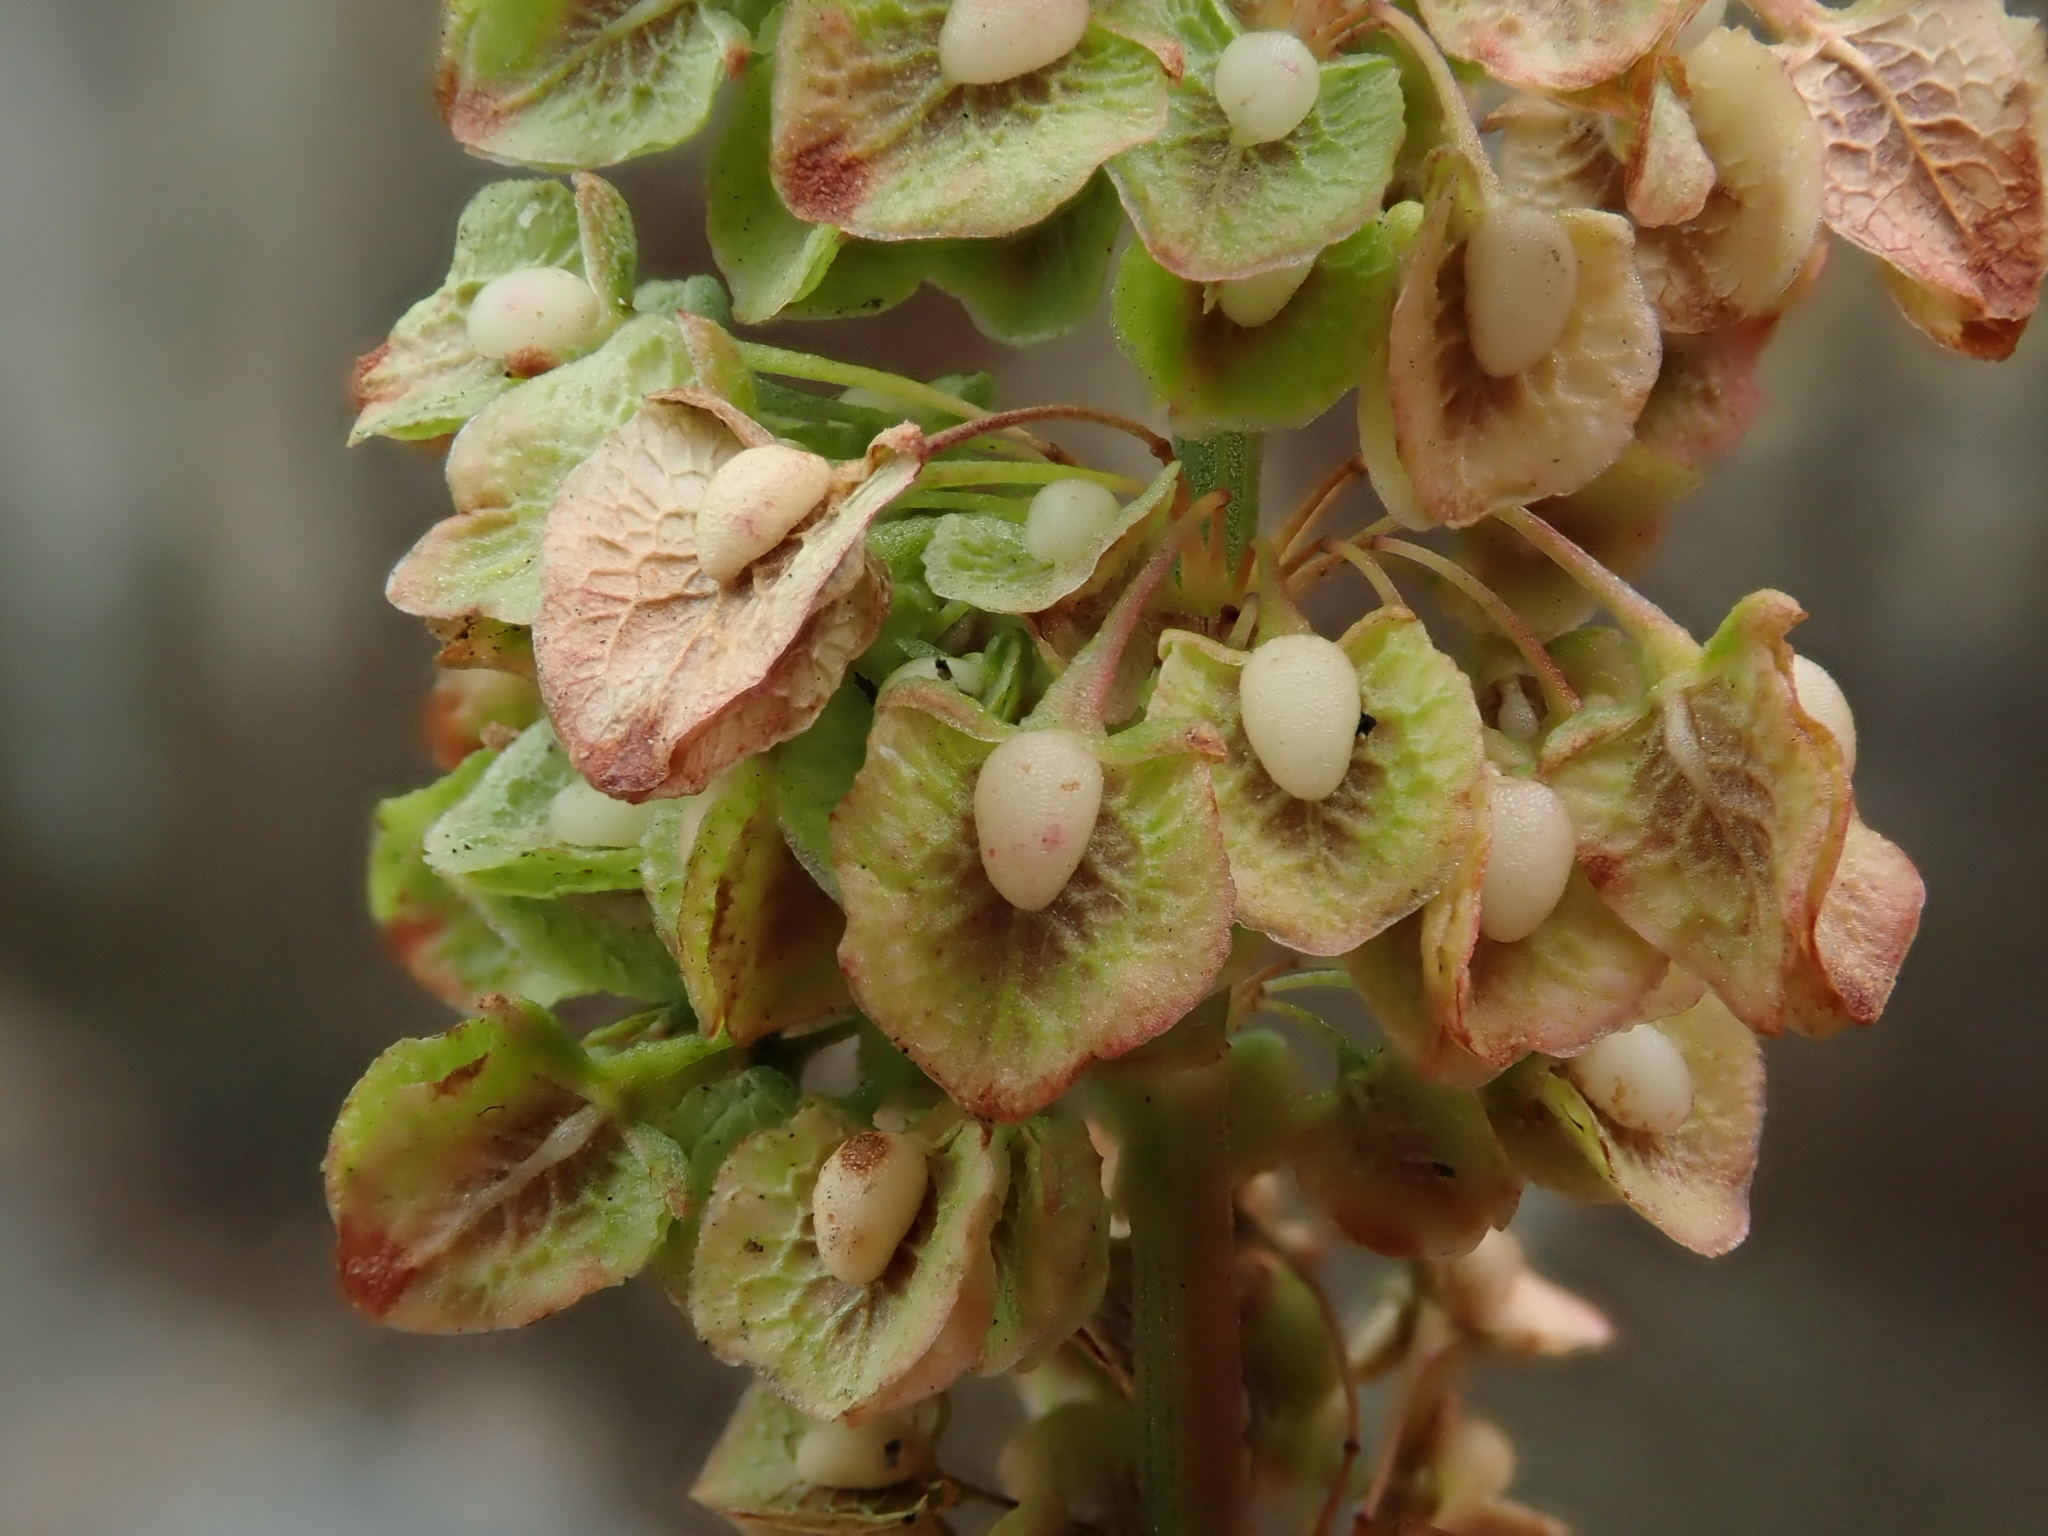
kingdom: Plantae
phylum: Tracheophyta
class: Magnoliopsida
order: Caryophyllales
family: Polygonaceae
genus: Rumex
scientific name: Rumex crispus
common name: Curled dock
